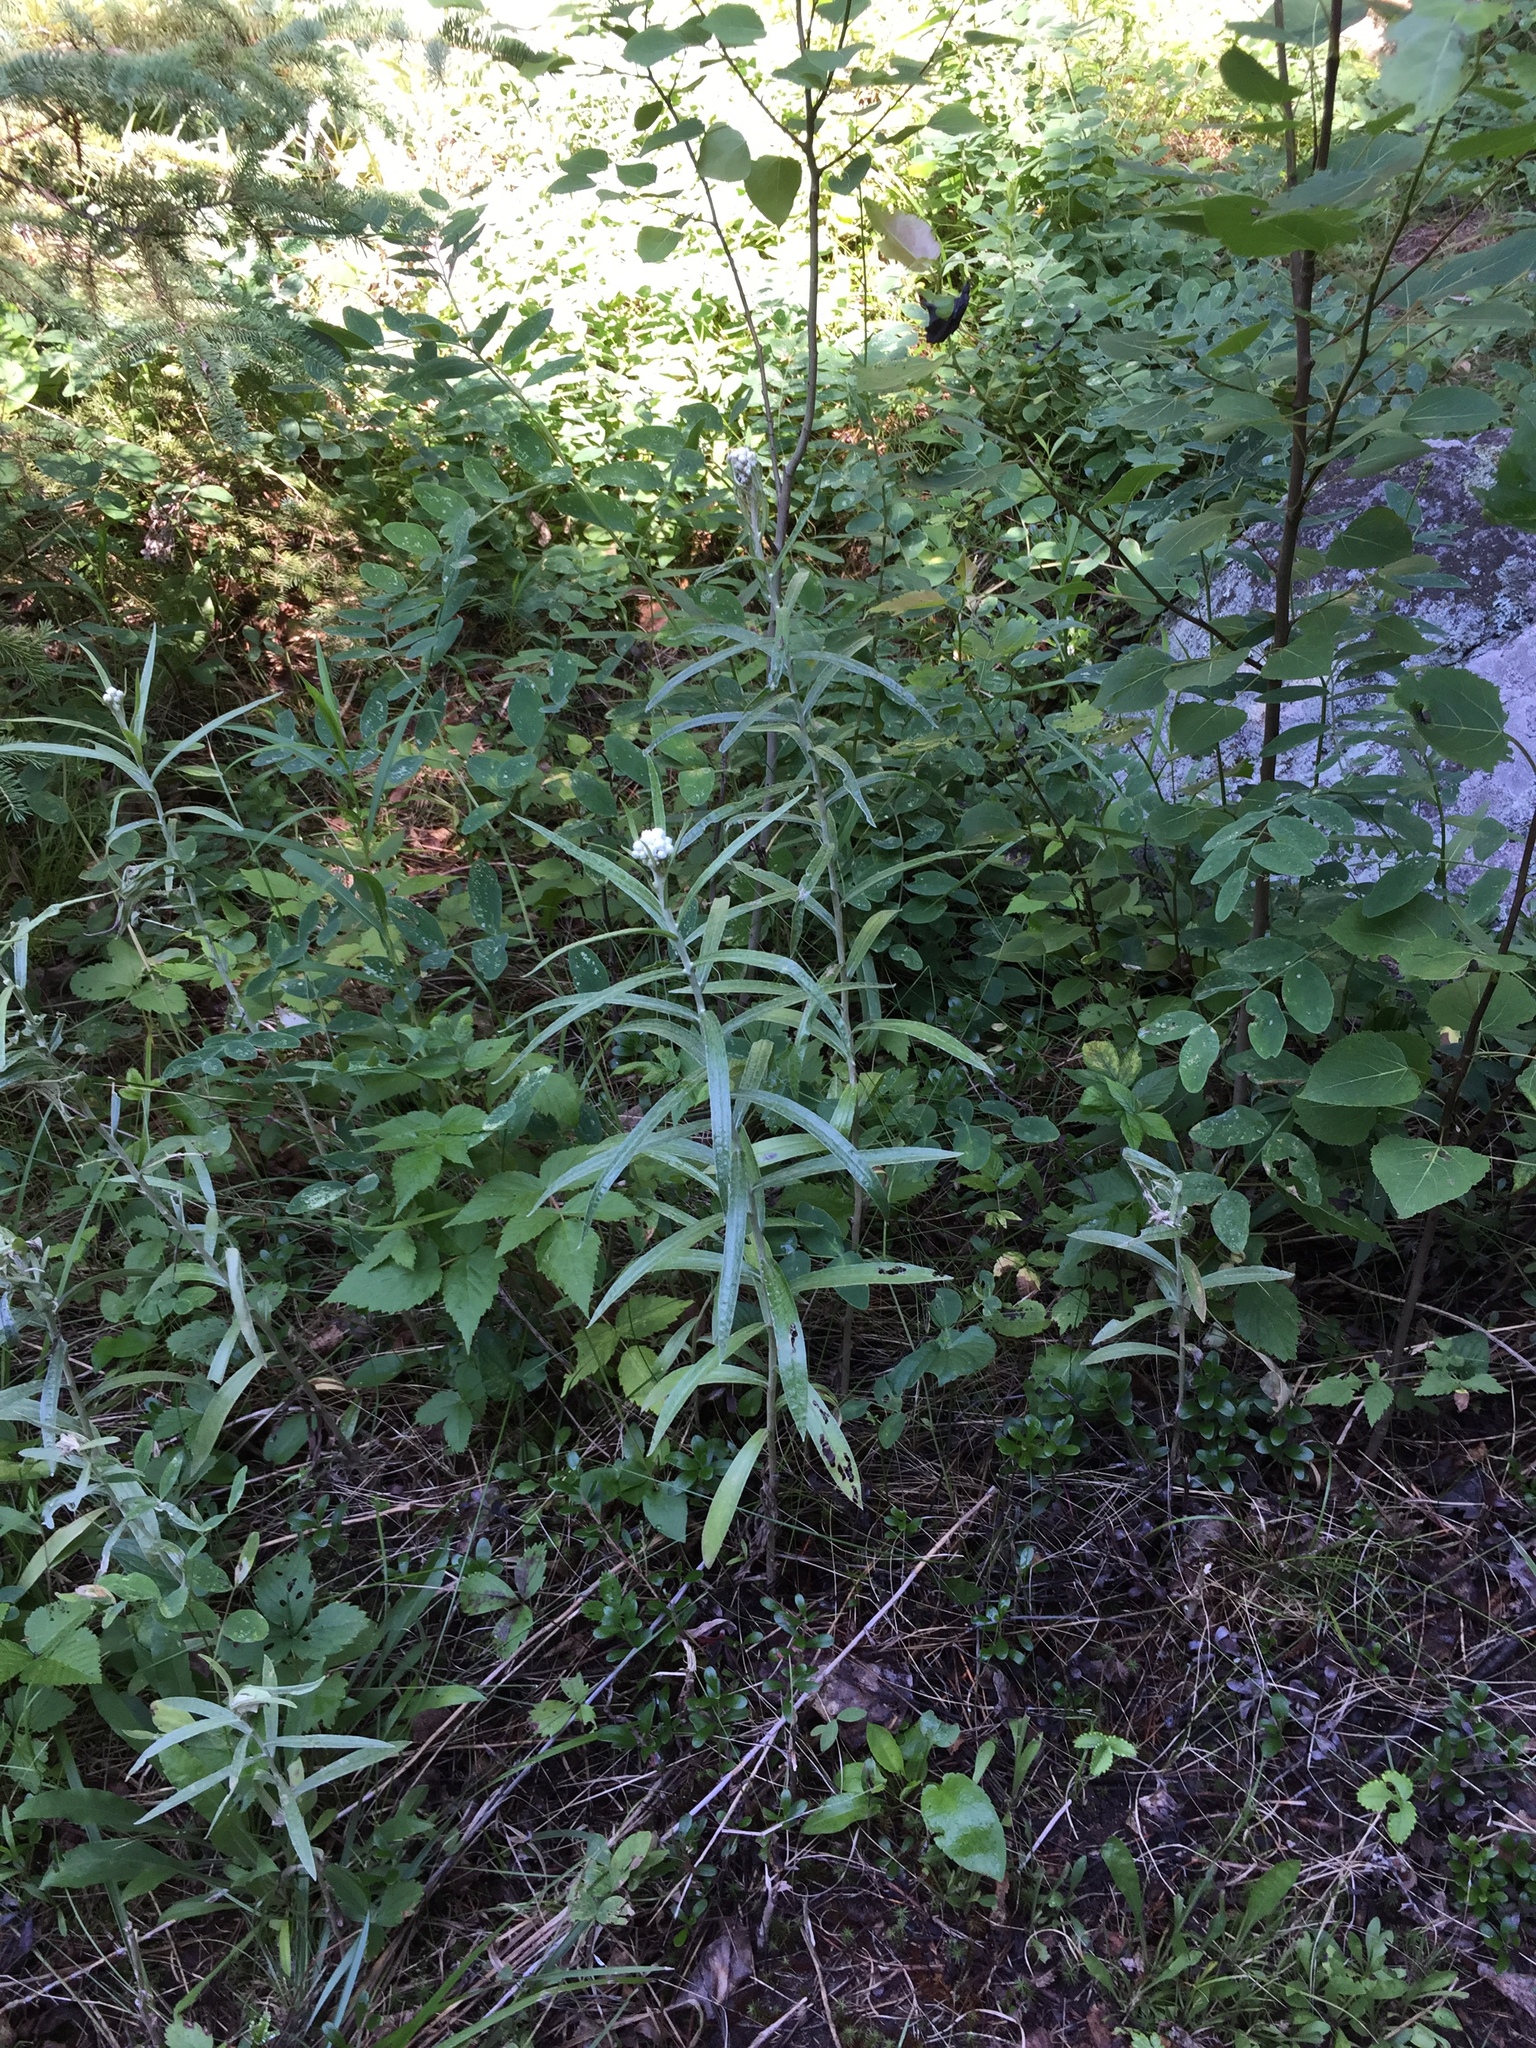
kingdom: Plantae
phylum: Tracheophyta
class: Magnoliopsida
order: Asterales
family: Asteraceae
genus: Anaphalis
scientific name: Anaphalis margaritacea
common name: Pearly everlasting
